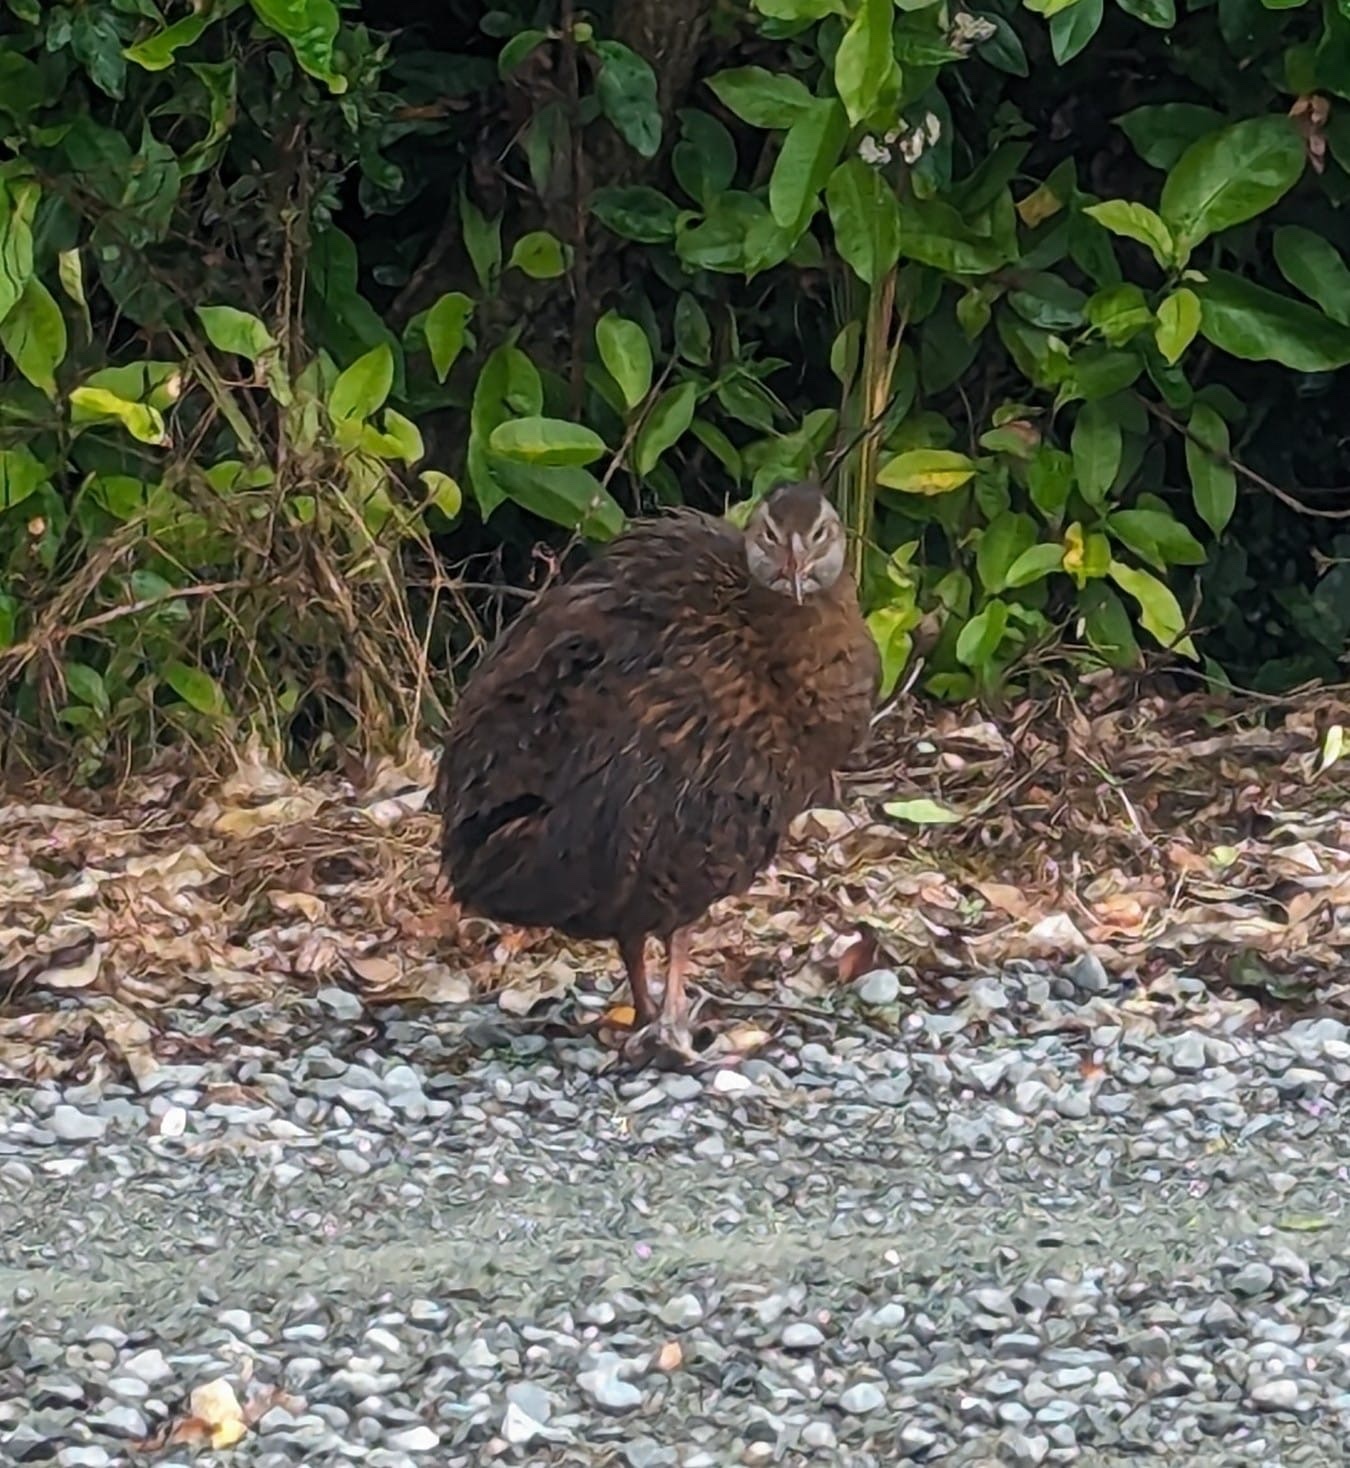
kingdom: Animalia
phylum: Chordata
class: Aves
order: Gruiformes
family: Rallidae
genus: Gallirallus
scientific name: Gallirallus australis
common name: Weka
